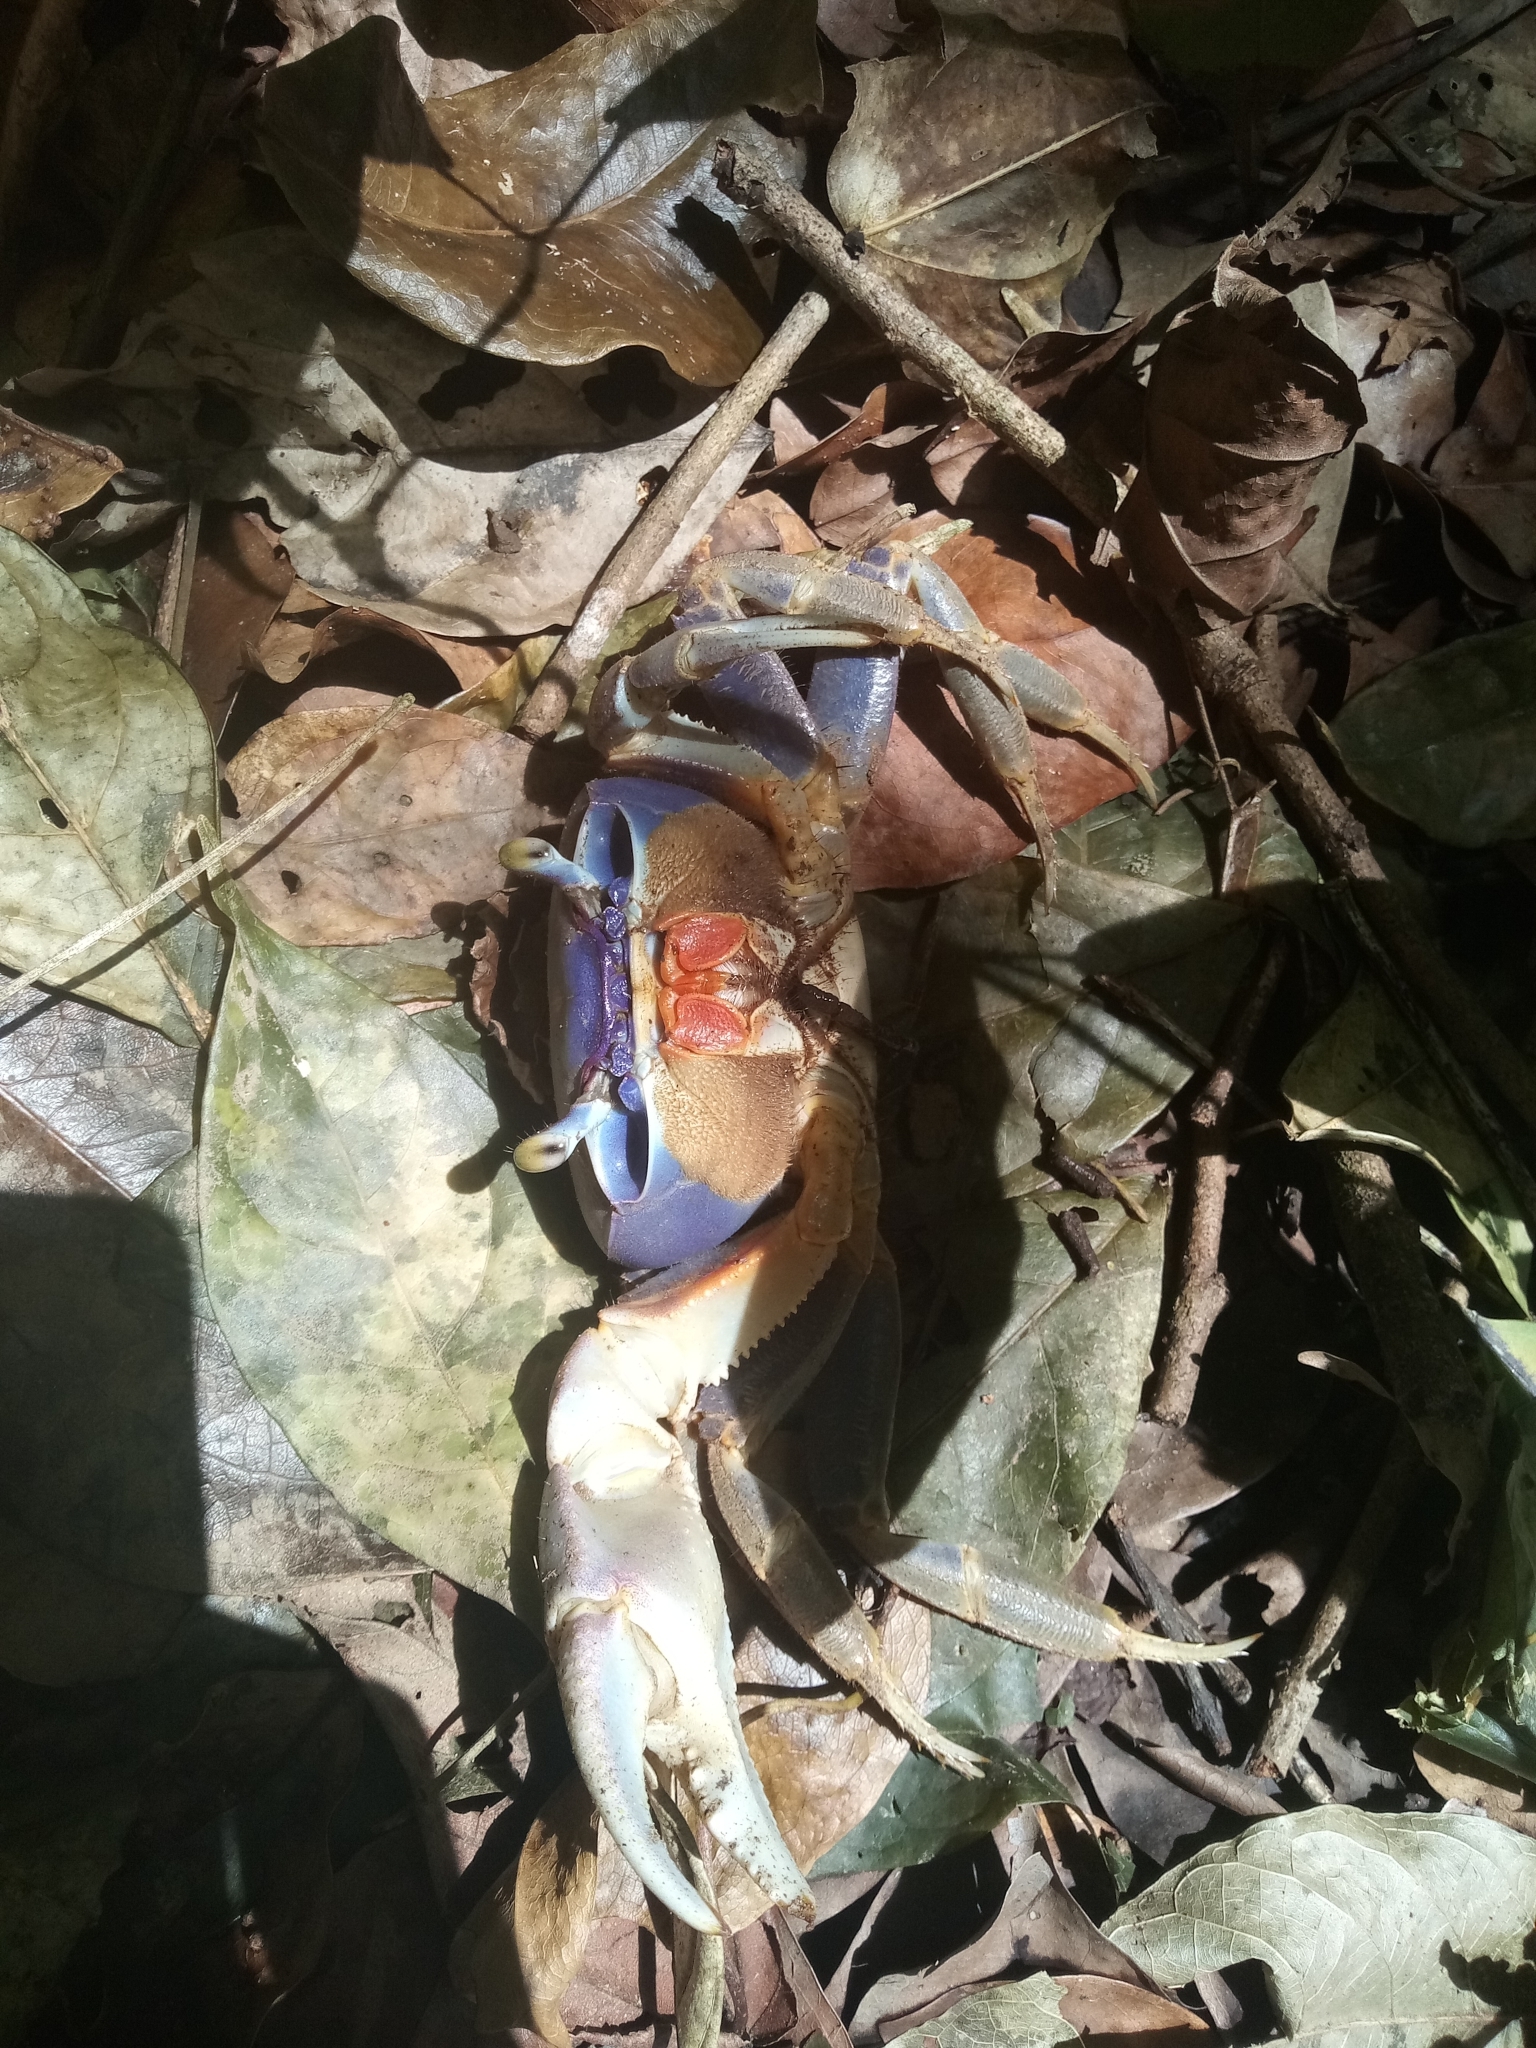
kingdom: Animalia
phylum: Arthropoda
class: Malacostraca
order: Decapoda
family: Gecarcinidae
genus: Cardisoma
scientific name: Cardisoma guanhumi
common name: Great land crab
